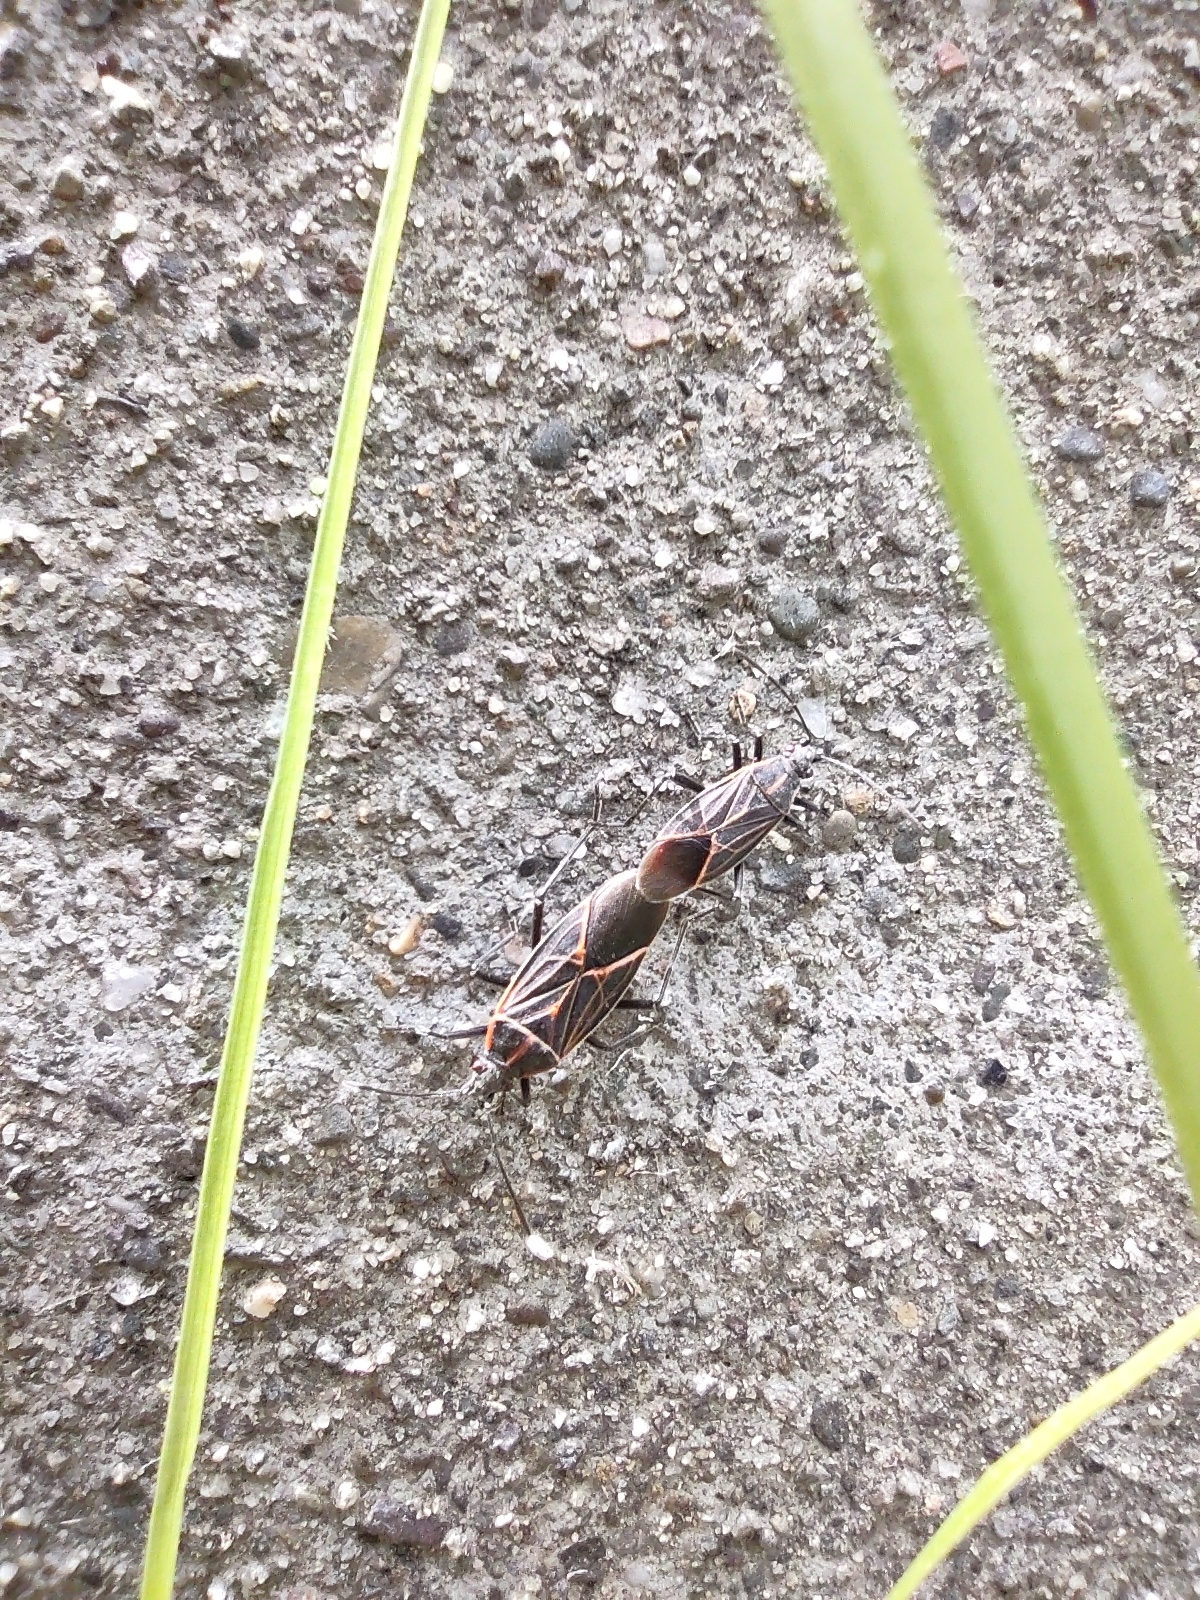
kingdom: Animalia
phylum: Arthropoda
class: Insecta
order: Hemiptera
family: Rhopalidae
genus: Boisea
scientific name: Boisea rubrolineata
